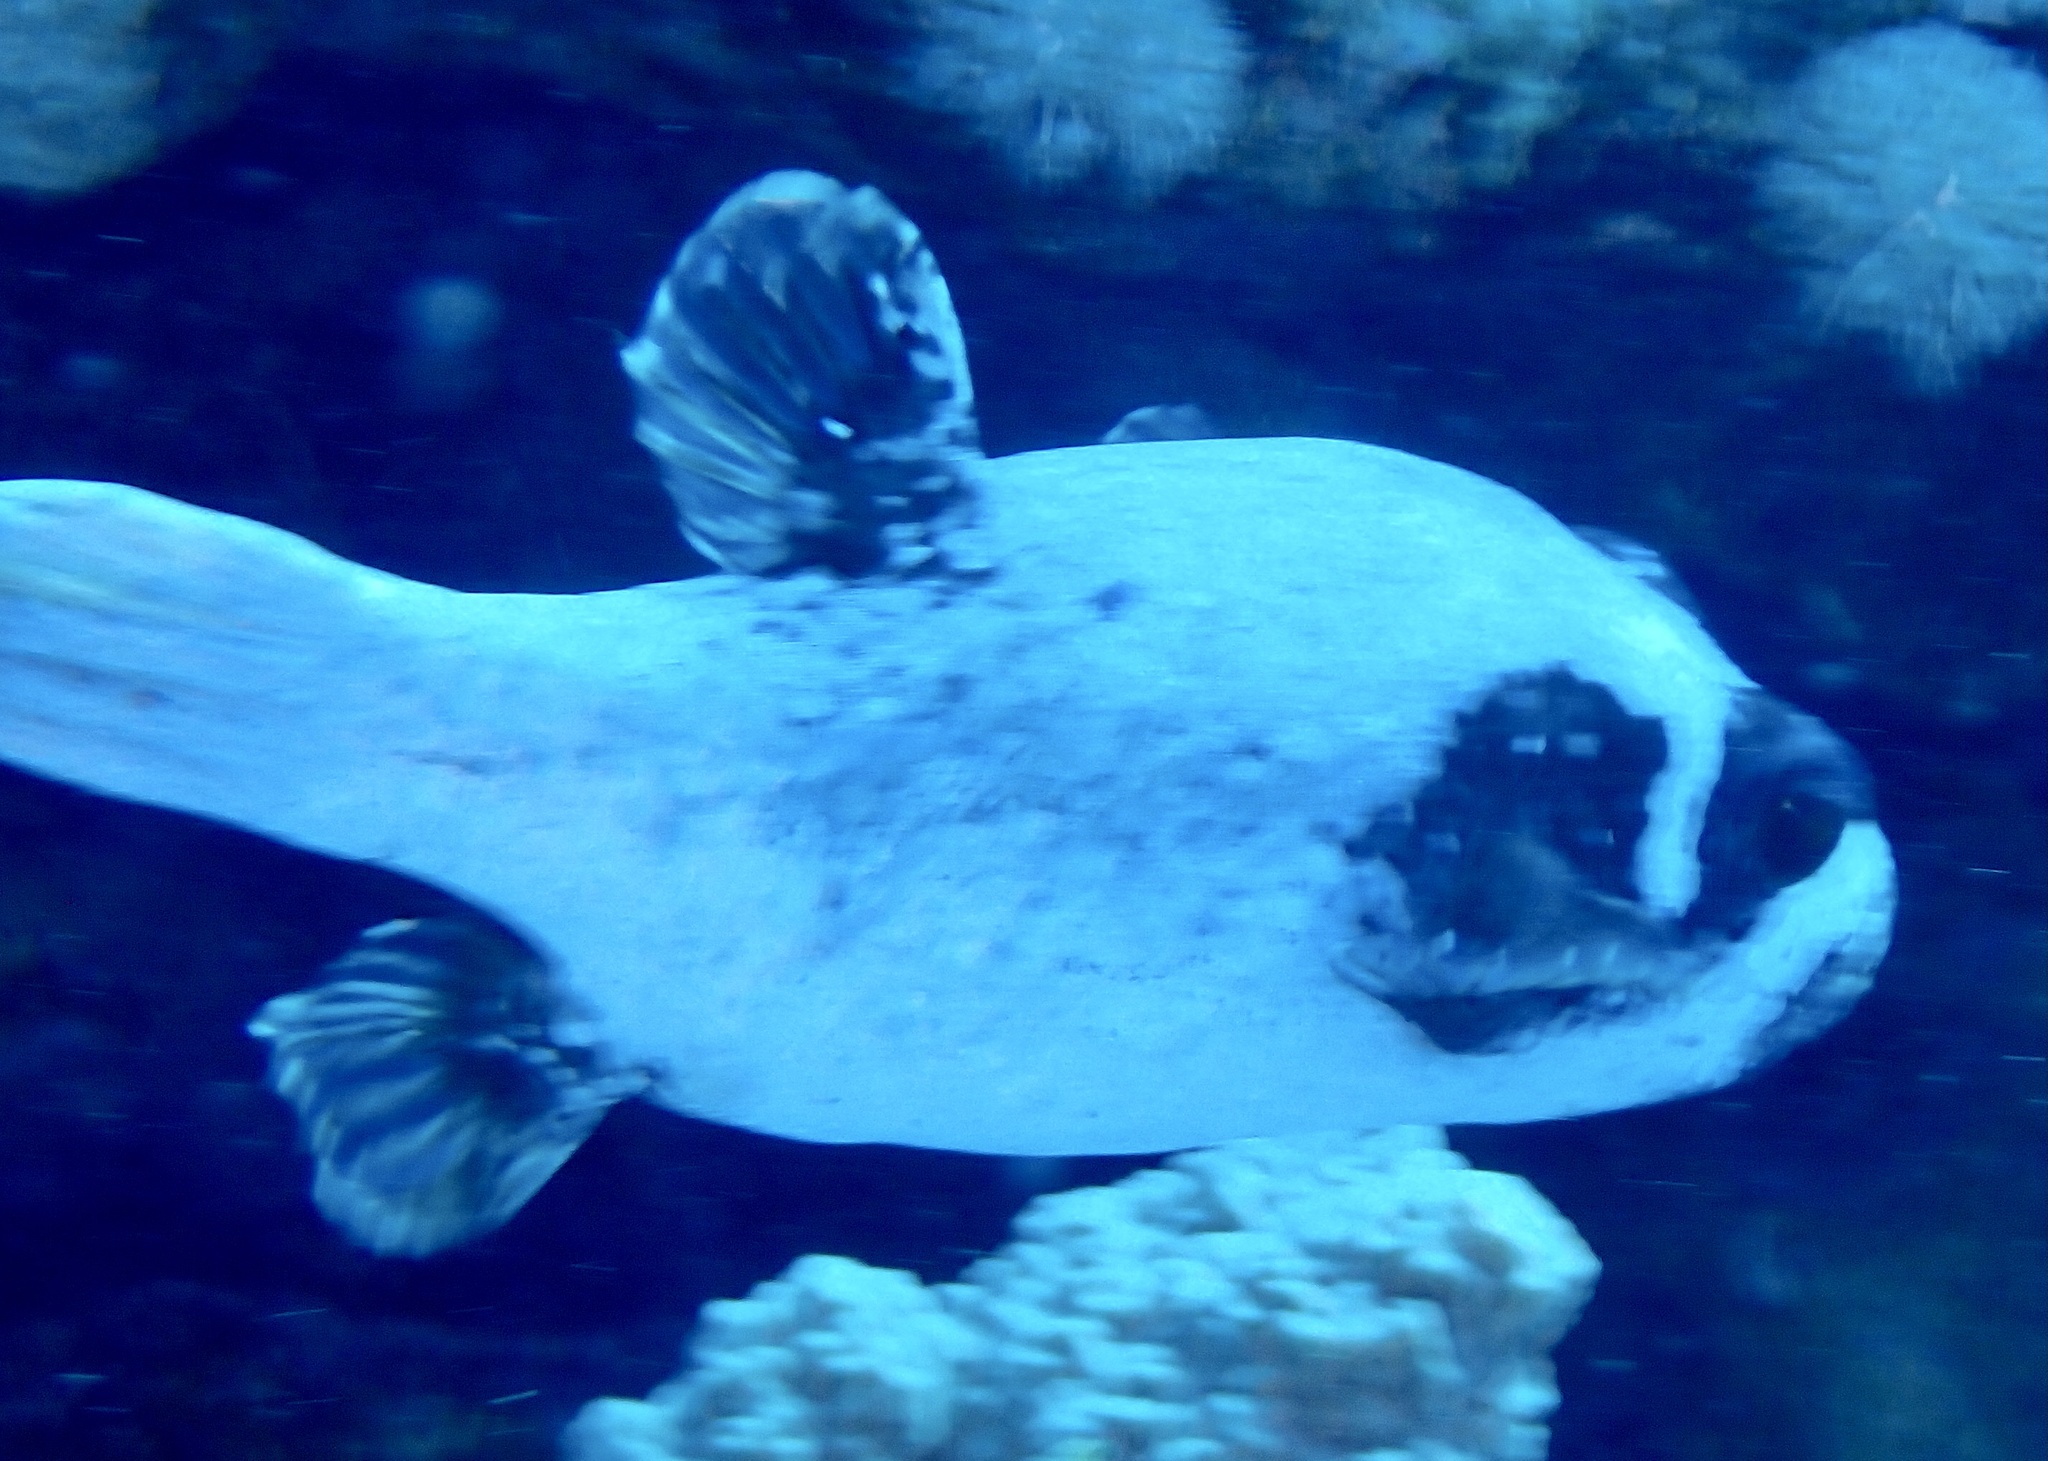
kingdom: Animalia
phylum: Chordata
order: Tetraodontiformes
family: Tetraodontidae
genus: Arothron
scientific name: Arothron diadematus
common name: Masked puffer
